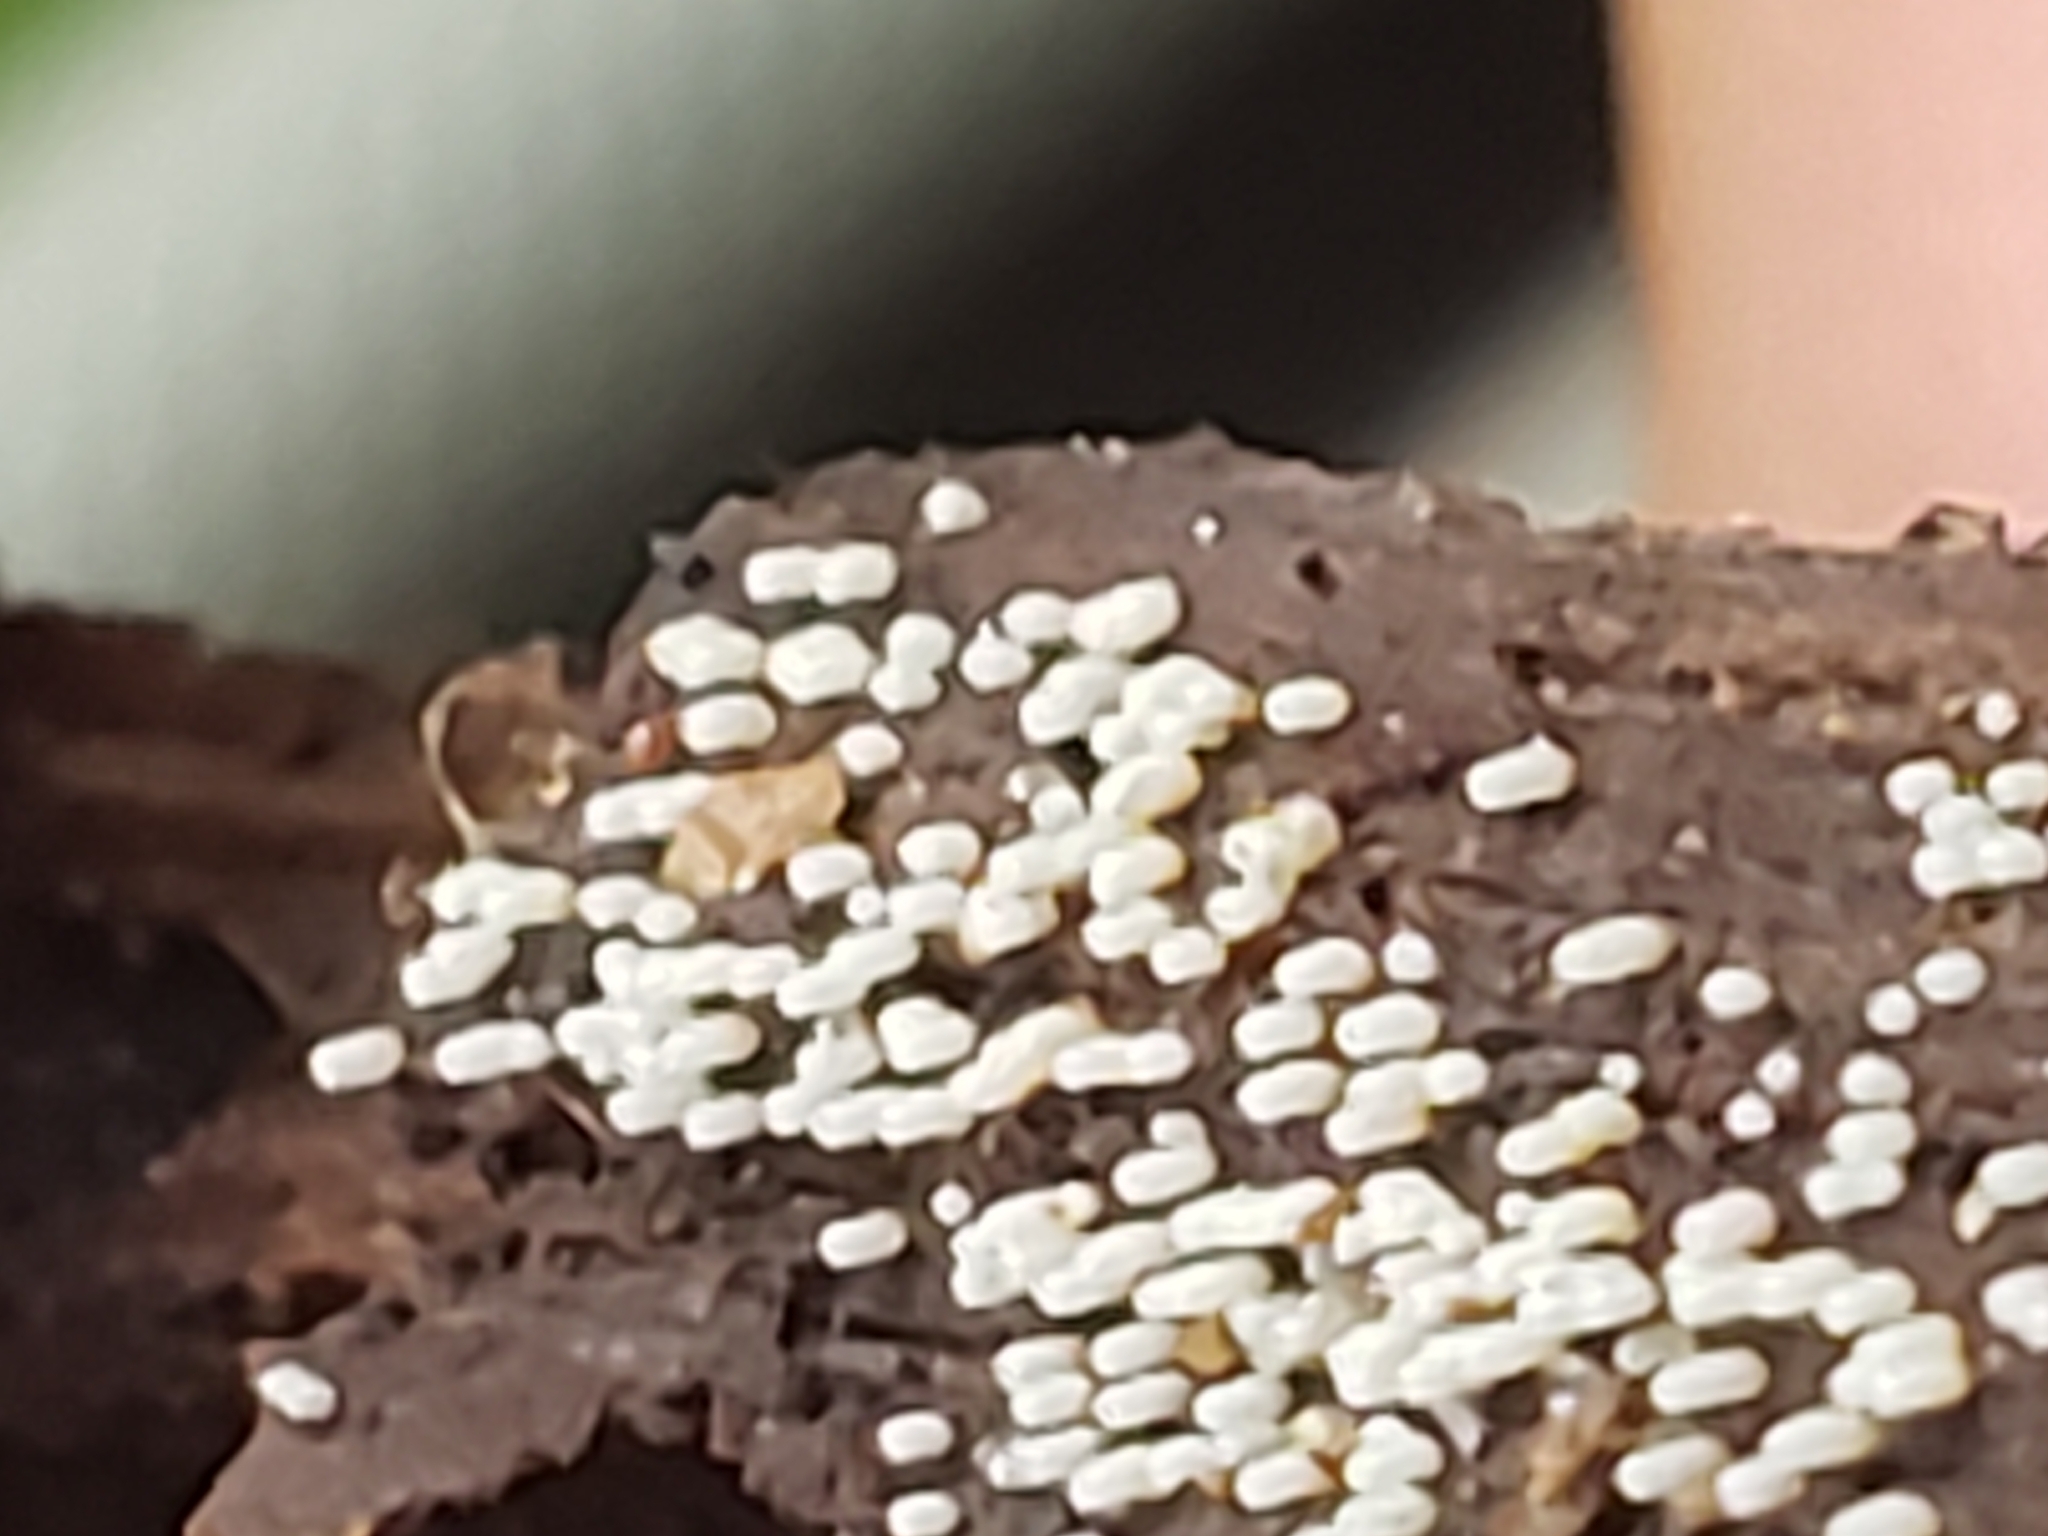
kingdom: Fungi
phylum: Basidiomycota
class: Agaricomycetes
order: Agaricales
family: Marasmiaceae
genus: Henningsomyces
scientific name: Henningsomyces candidus
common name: White tubelet
